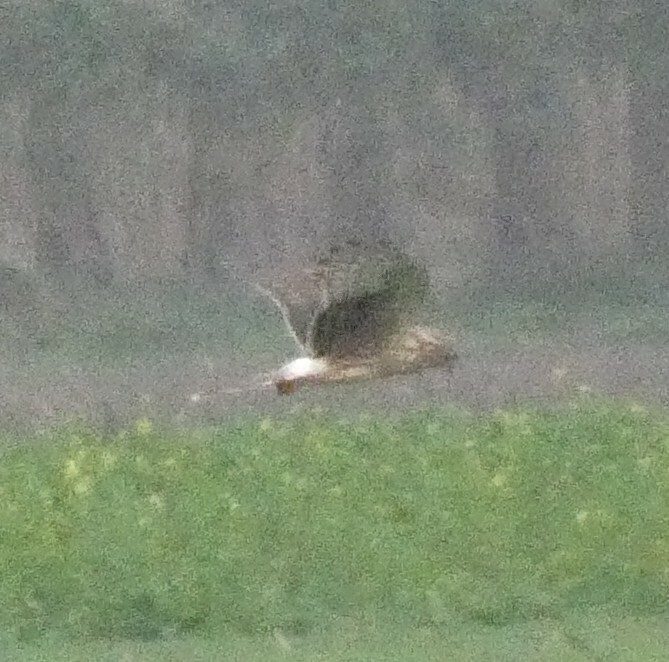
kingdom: Animalia
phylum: Chordata
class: Aves
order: Accipitriformes
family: Accipitridae
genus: Circus
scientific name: Circus cyaneus
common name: Hen harrier
